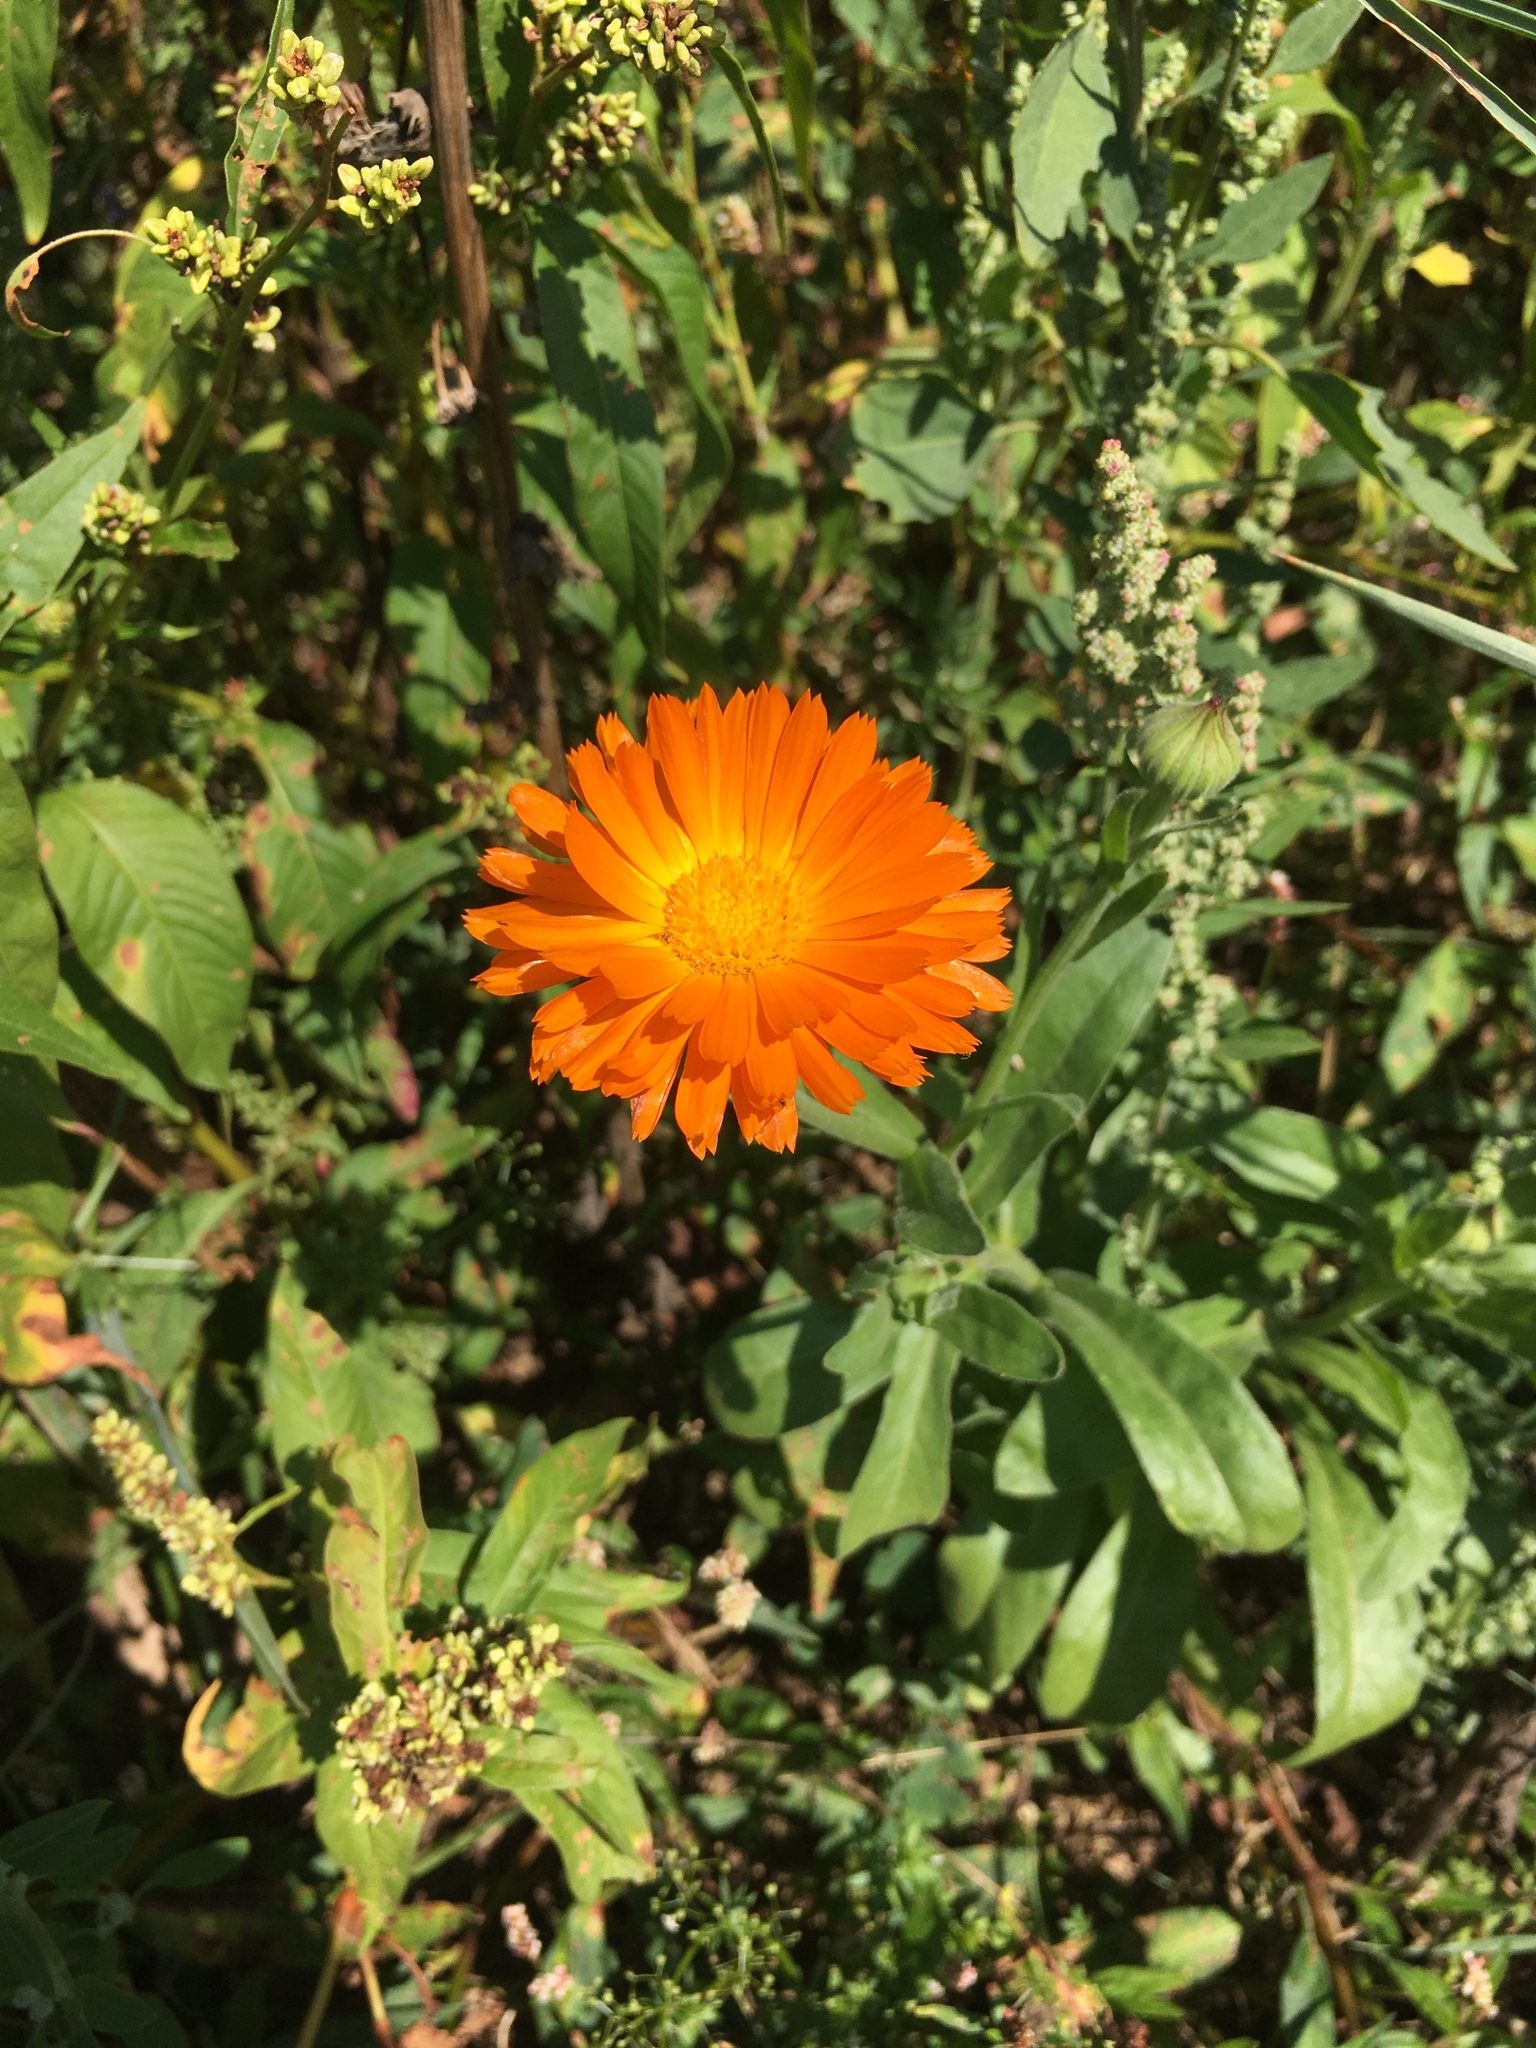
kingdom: Plantae
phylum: Tracheophyta
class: Magnoliopsida
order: Asterales
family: Asteraceae
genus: Calendula
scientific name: Calendula officinalis
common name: Pot marigold
